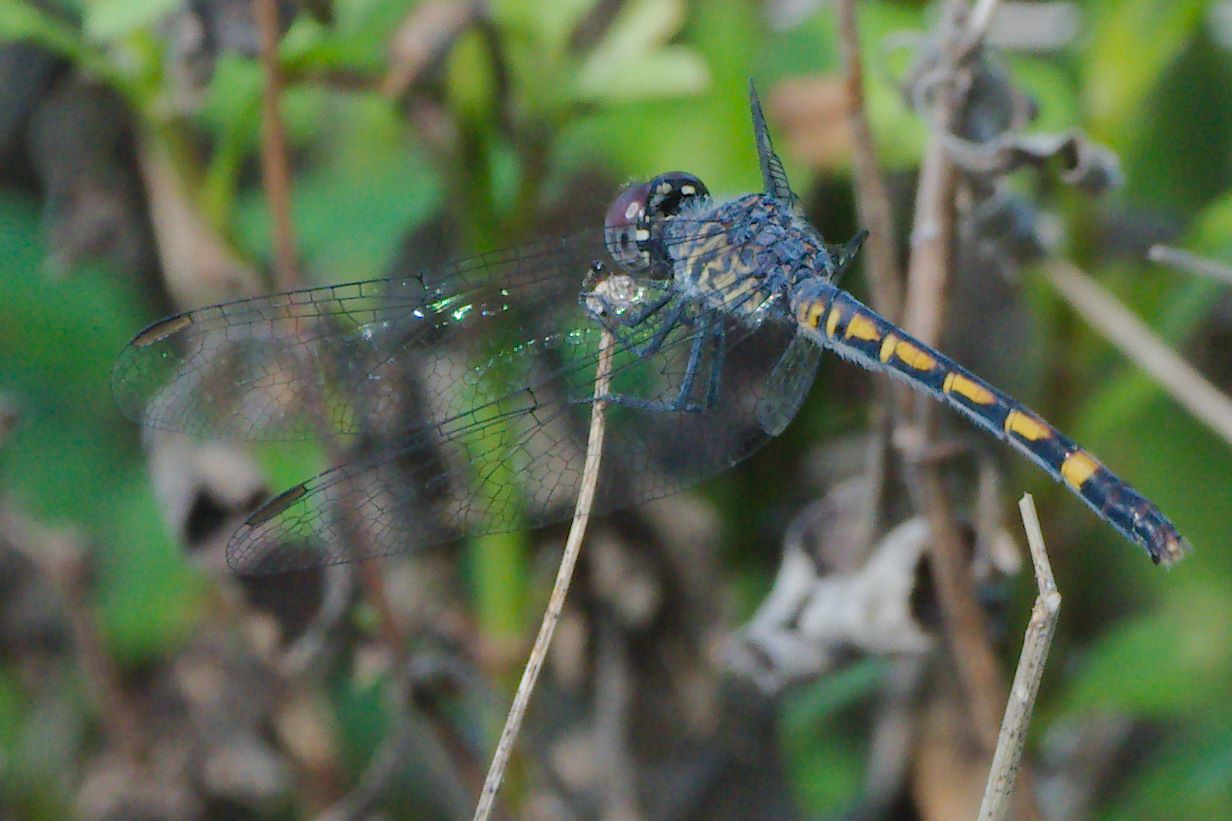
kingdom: Animalia
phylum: Arthropoda
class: Insecta
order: Odonata
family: Libellulidae
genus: Erythrodiplax
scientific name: Erythrodiplax berenice
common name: Seaside dragonlet
